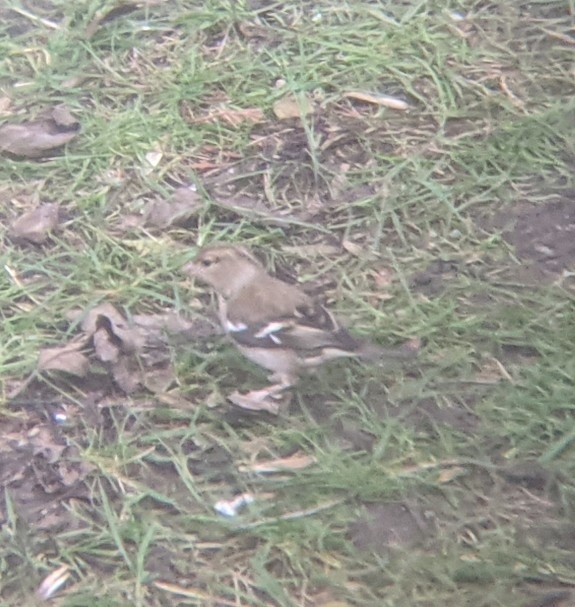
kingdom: Animalia
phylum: Chordata
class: Aves
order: Passeriformes
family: Fringillidae
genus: Fringilla
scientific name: Fringilla coelebs
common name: Common chaffinch
